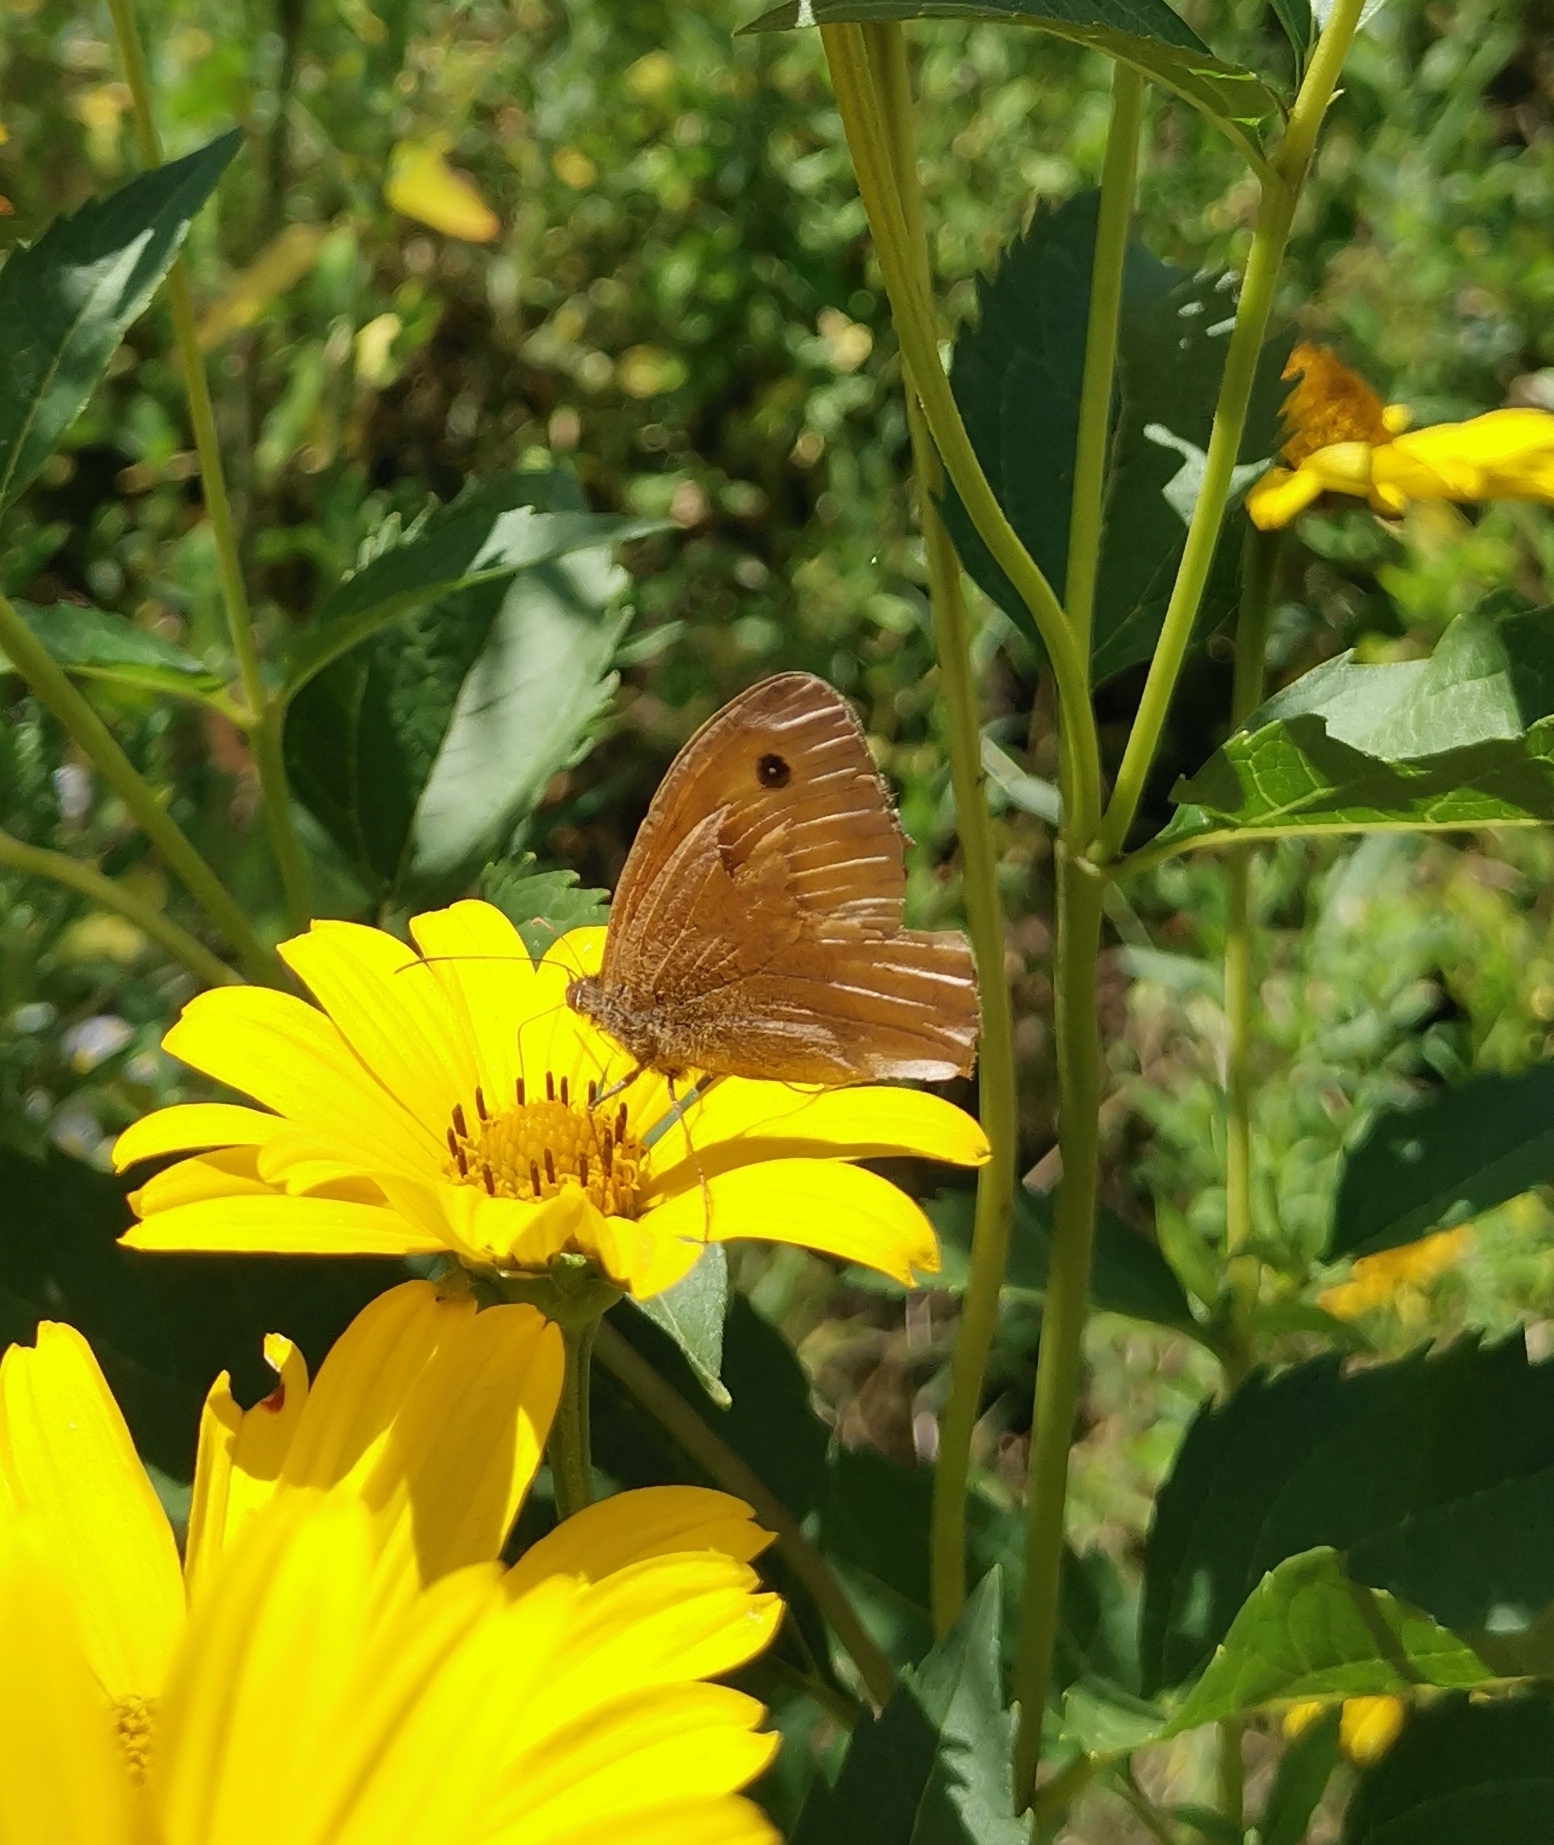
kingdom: Animalia
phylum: Arthropoda
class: Insecta
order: Lepidoptera
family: Nymphalidae
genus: Maniola
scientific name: Maniola jurtina
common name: Meadow brown
